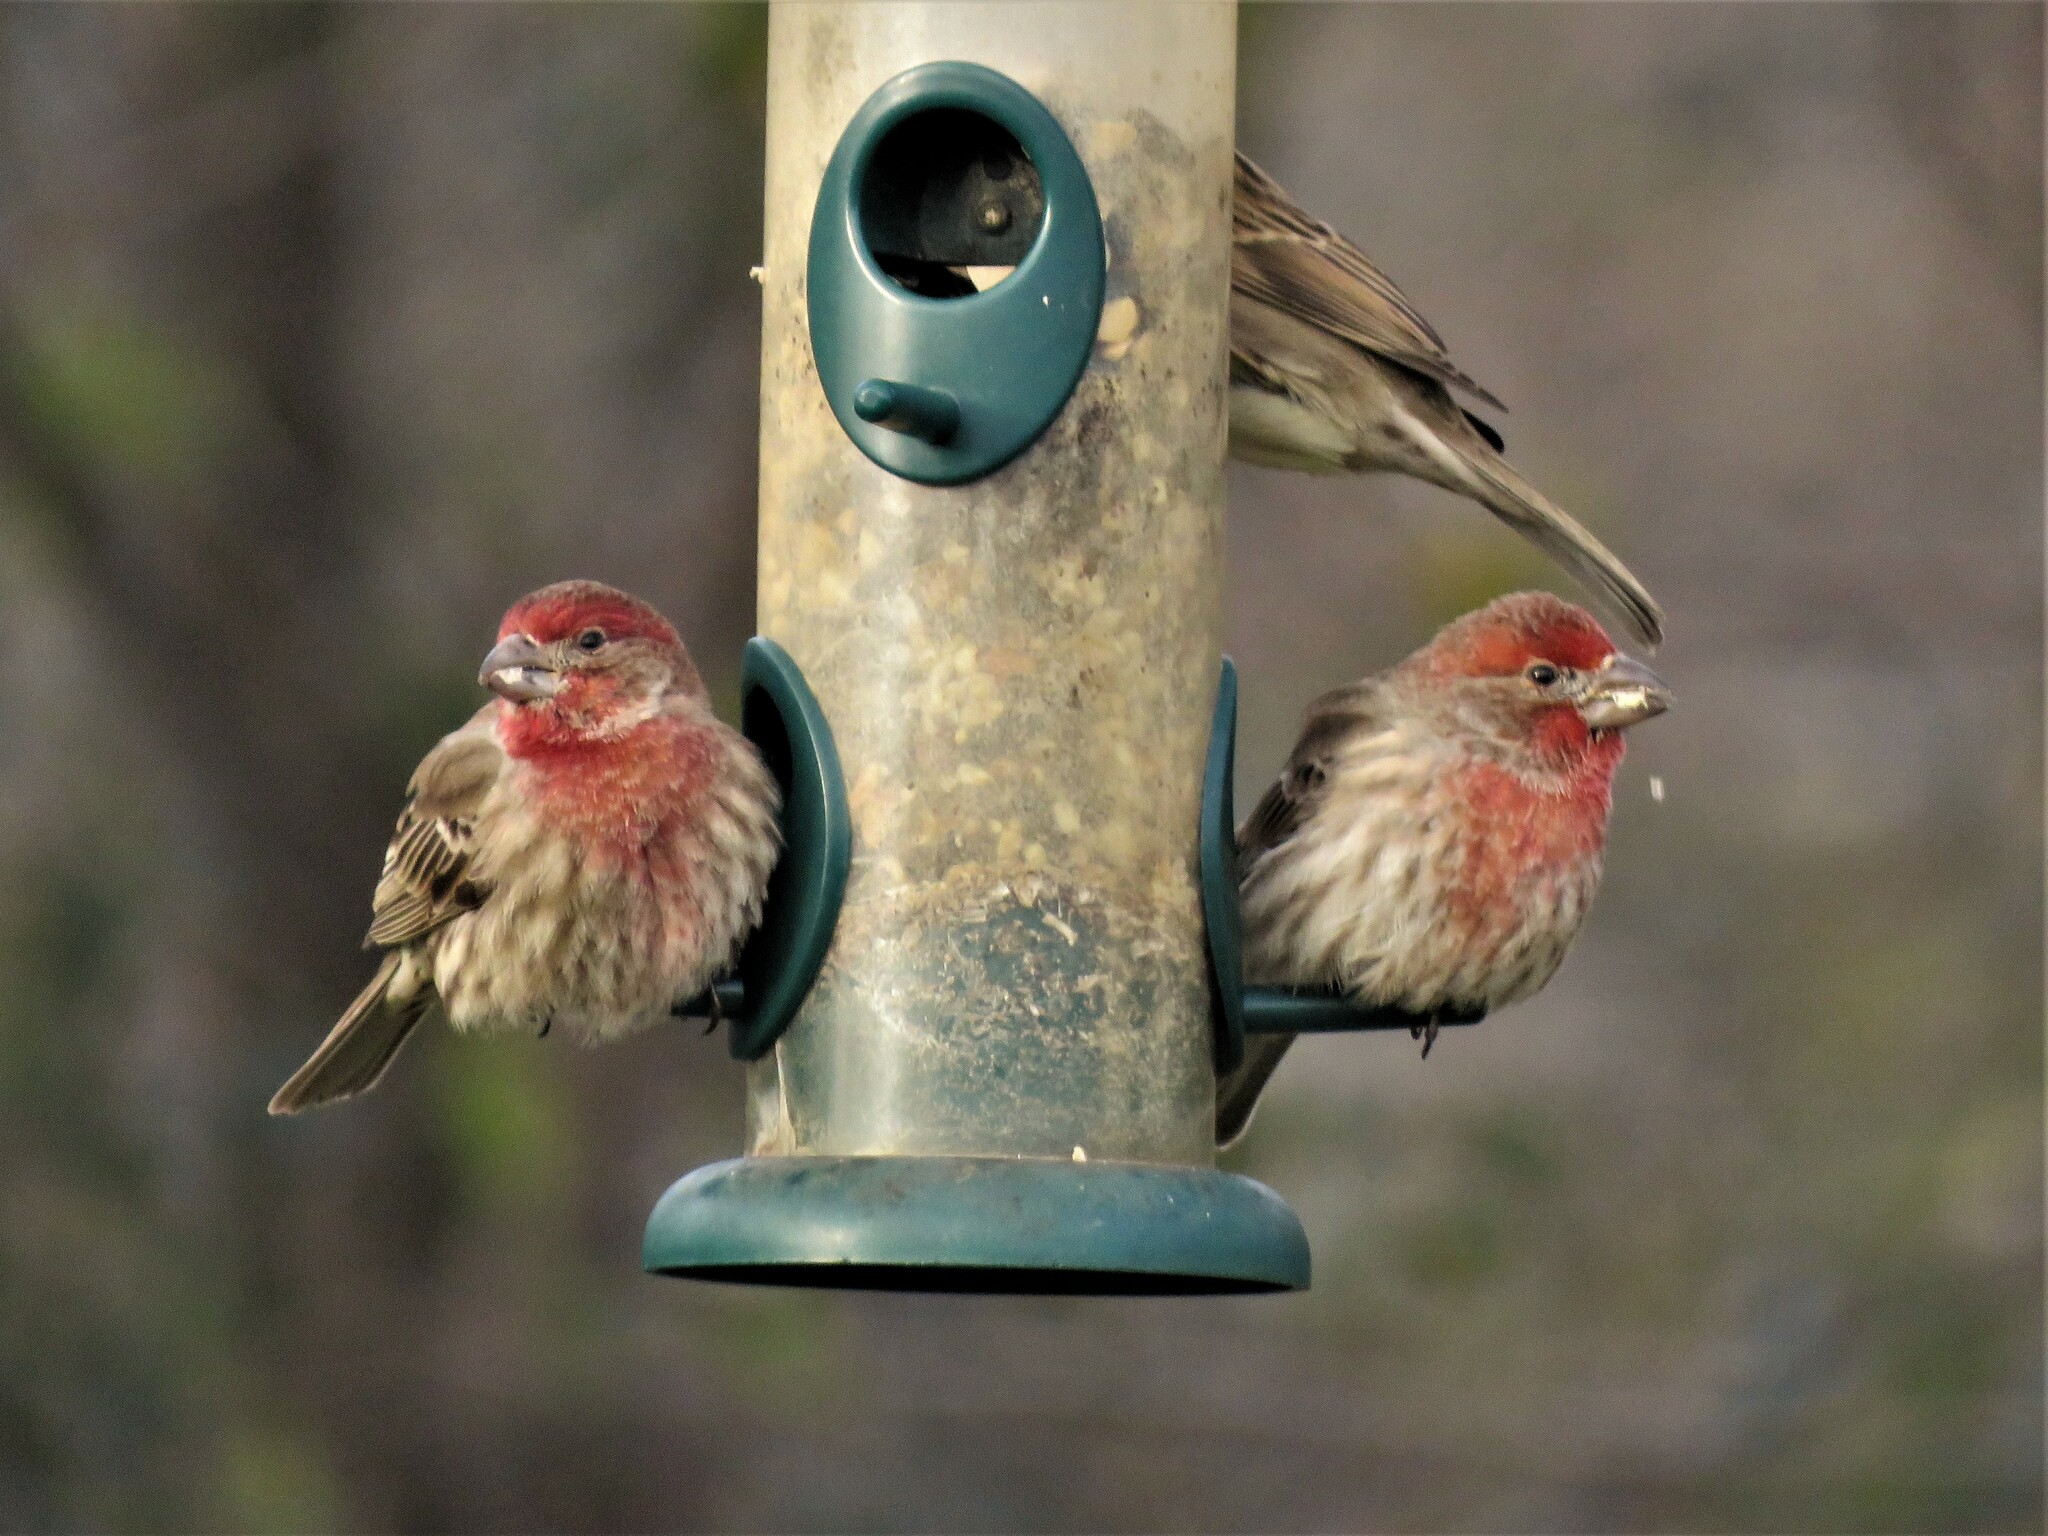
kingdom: Animalia
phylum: Chordata
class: Aves
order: Passeriformes
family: Fringillidae
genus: Haemorhous
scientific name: Haemorhous mexicanus
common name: House finch
